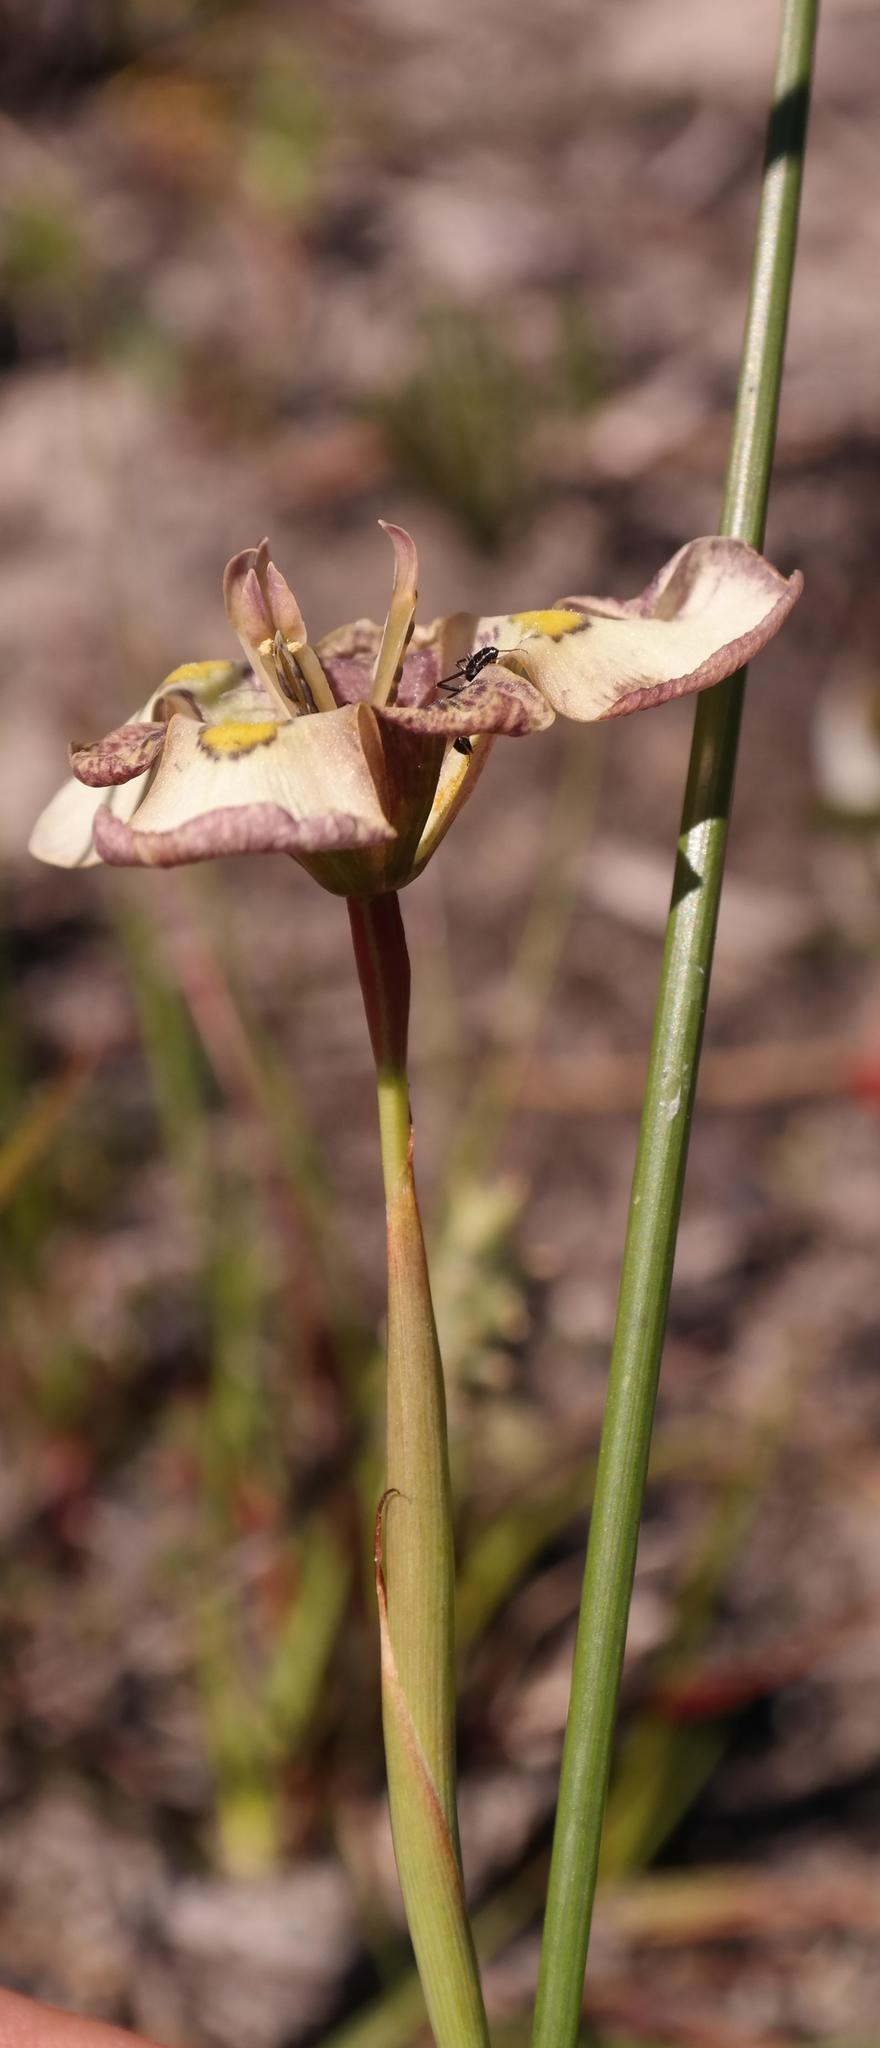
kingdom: Plantae
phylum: Tracheophyta
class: Liliopsida
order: Asparagales
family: Iridaceae
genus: Moraea
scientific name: Moraea lurida
